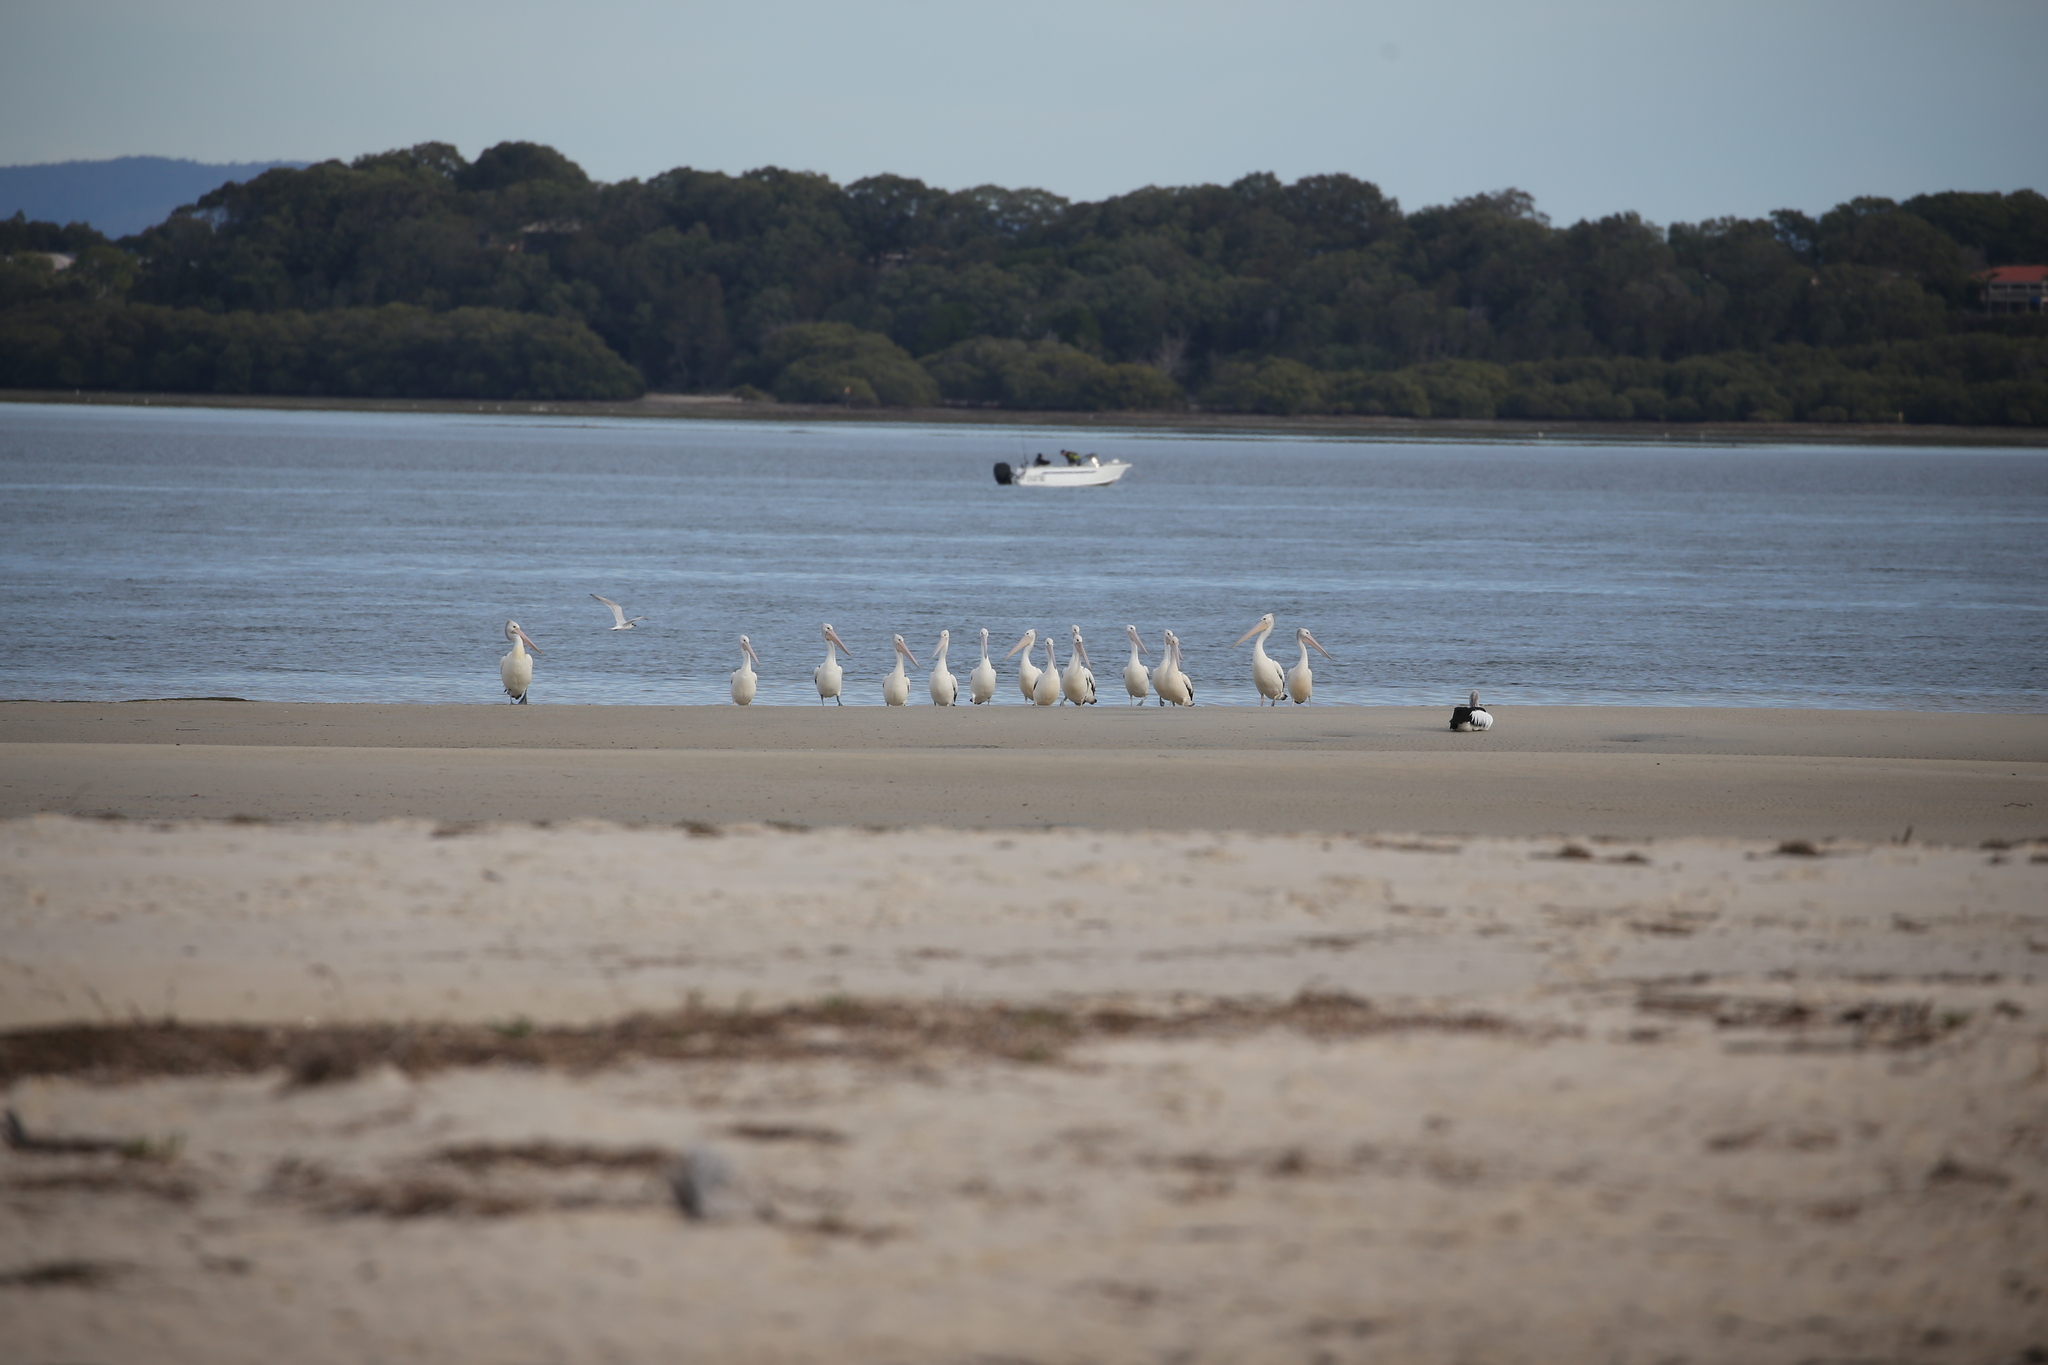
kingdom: Animalia
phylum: Chordata
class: Aves
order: Charadriiformes
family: Laridae
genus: Gelochelidon
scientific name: Gelochelidon macrotarsa
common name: Australian tern
